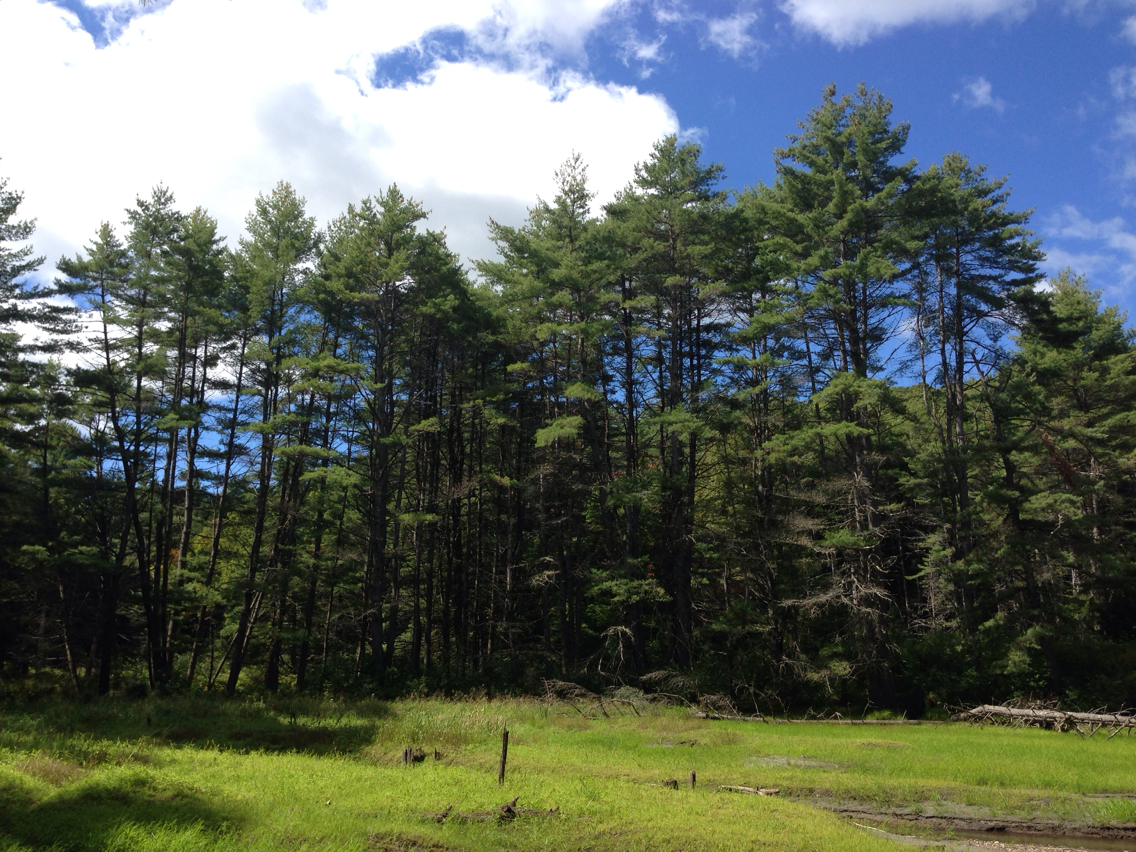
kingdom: Plantae
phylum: Tracheophyta
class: Pinopsida
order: Pinales
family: Pinaceae
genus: Pinus
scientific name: Pinus strobus
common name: Weymouth pine
